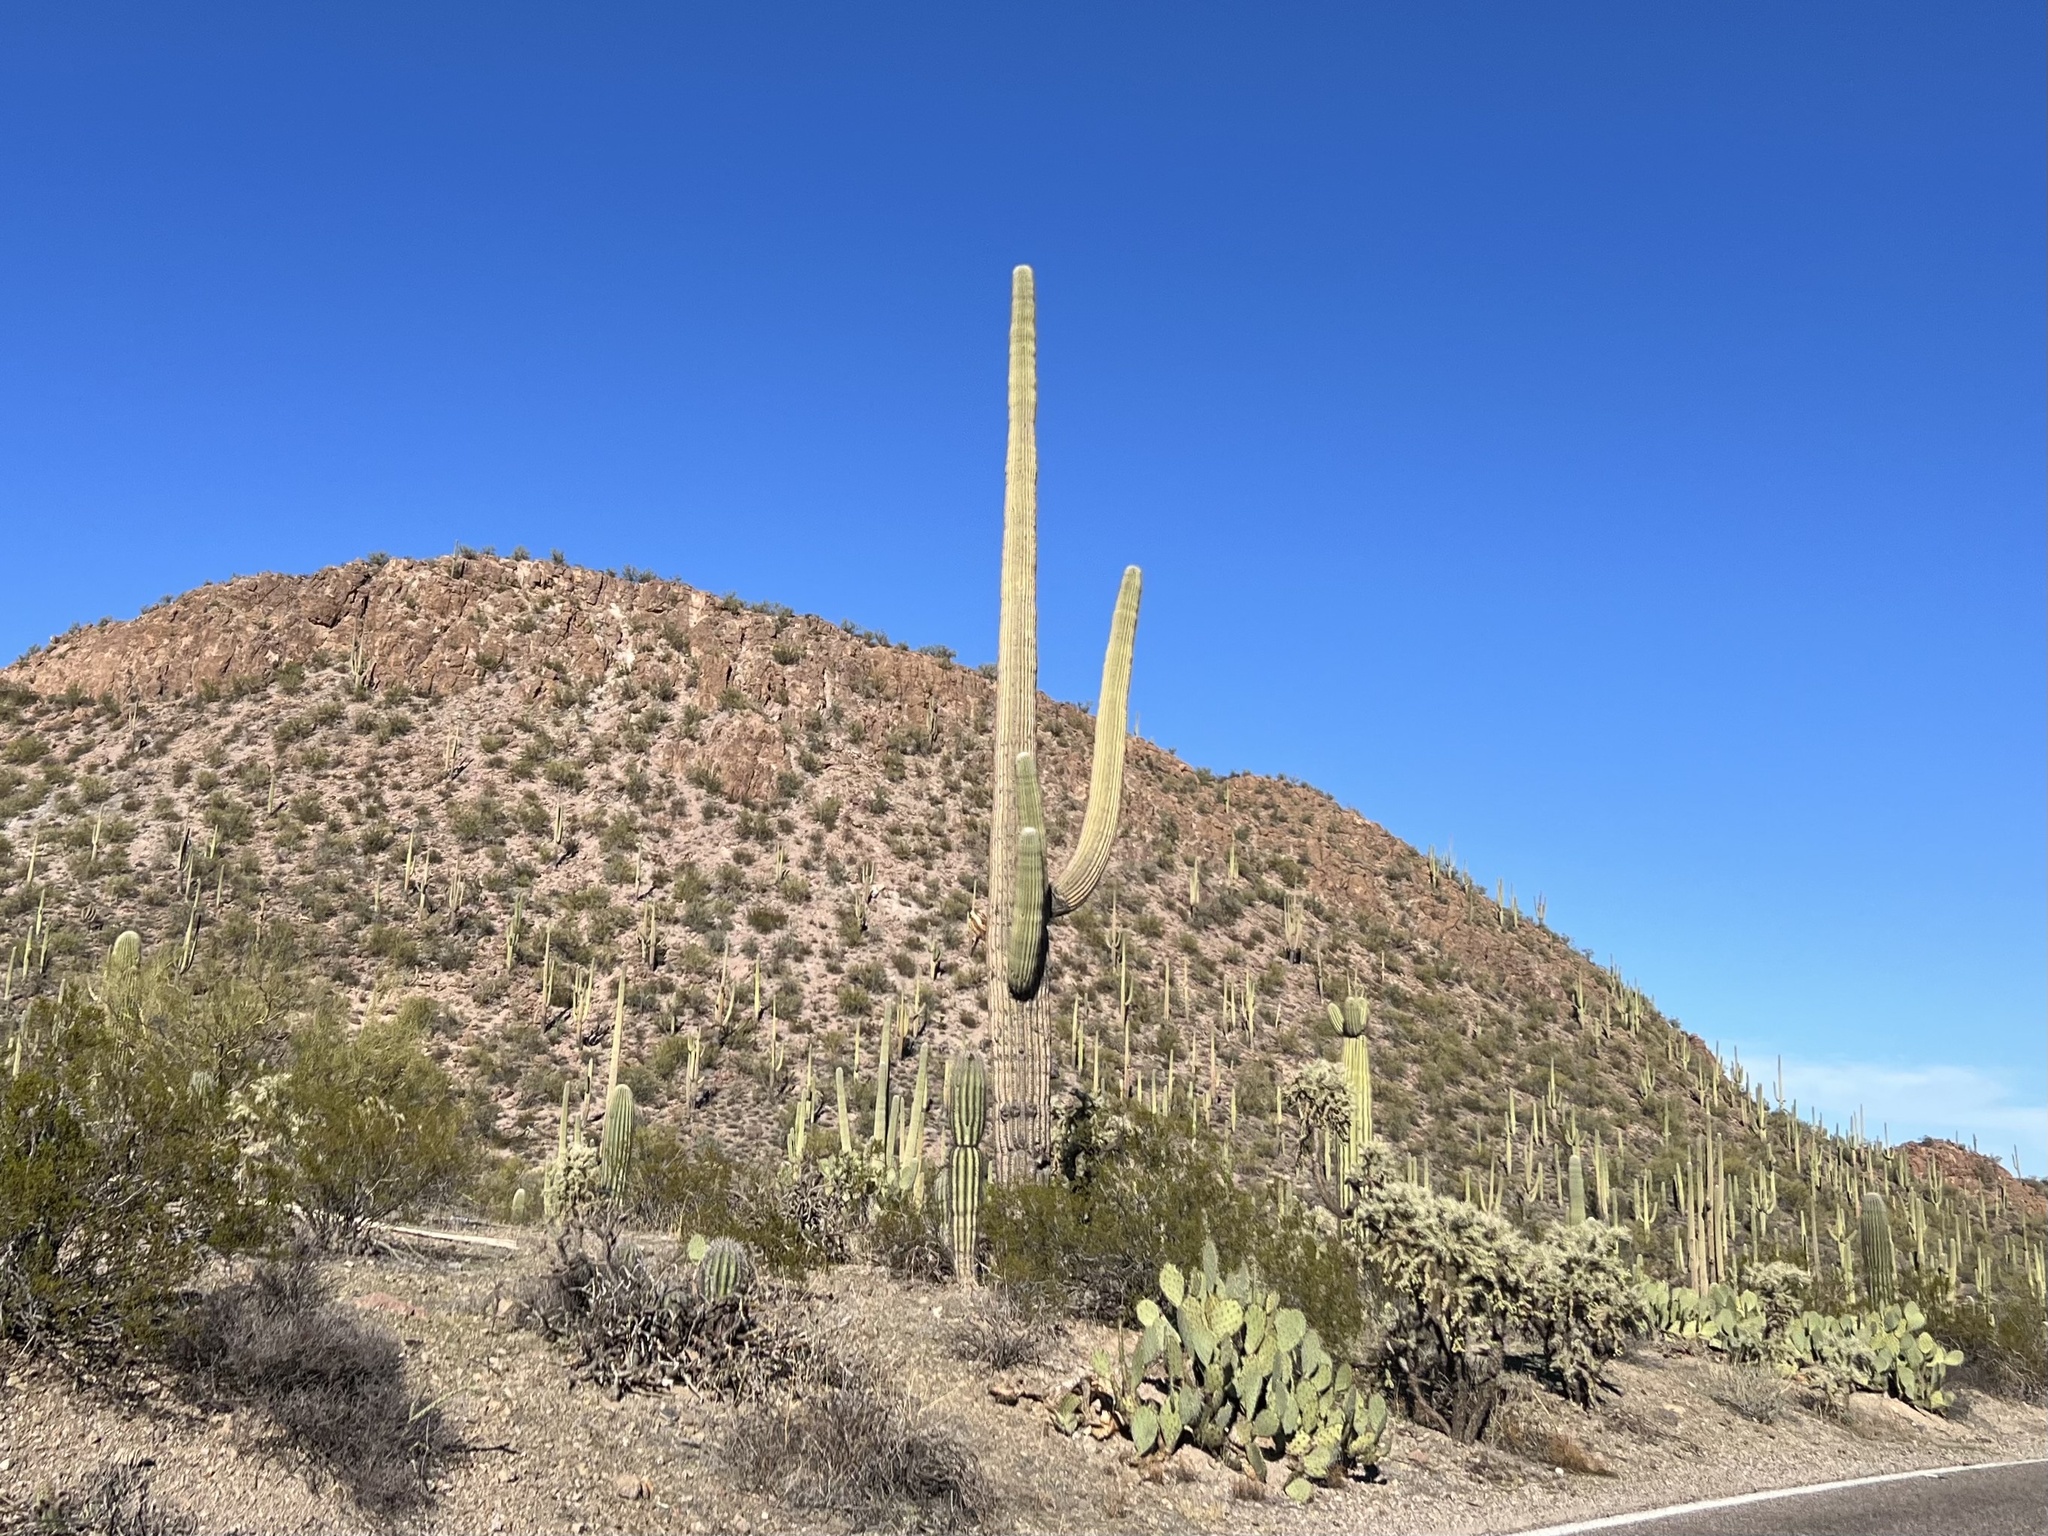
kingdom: Plantae
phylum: Tracheophyta
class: Magnoliopsida
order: Caryophyllales
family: Cactaceae
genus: Carnegiea
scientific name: Carnegiea gigantea
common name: Saguaro
